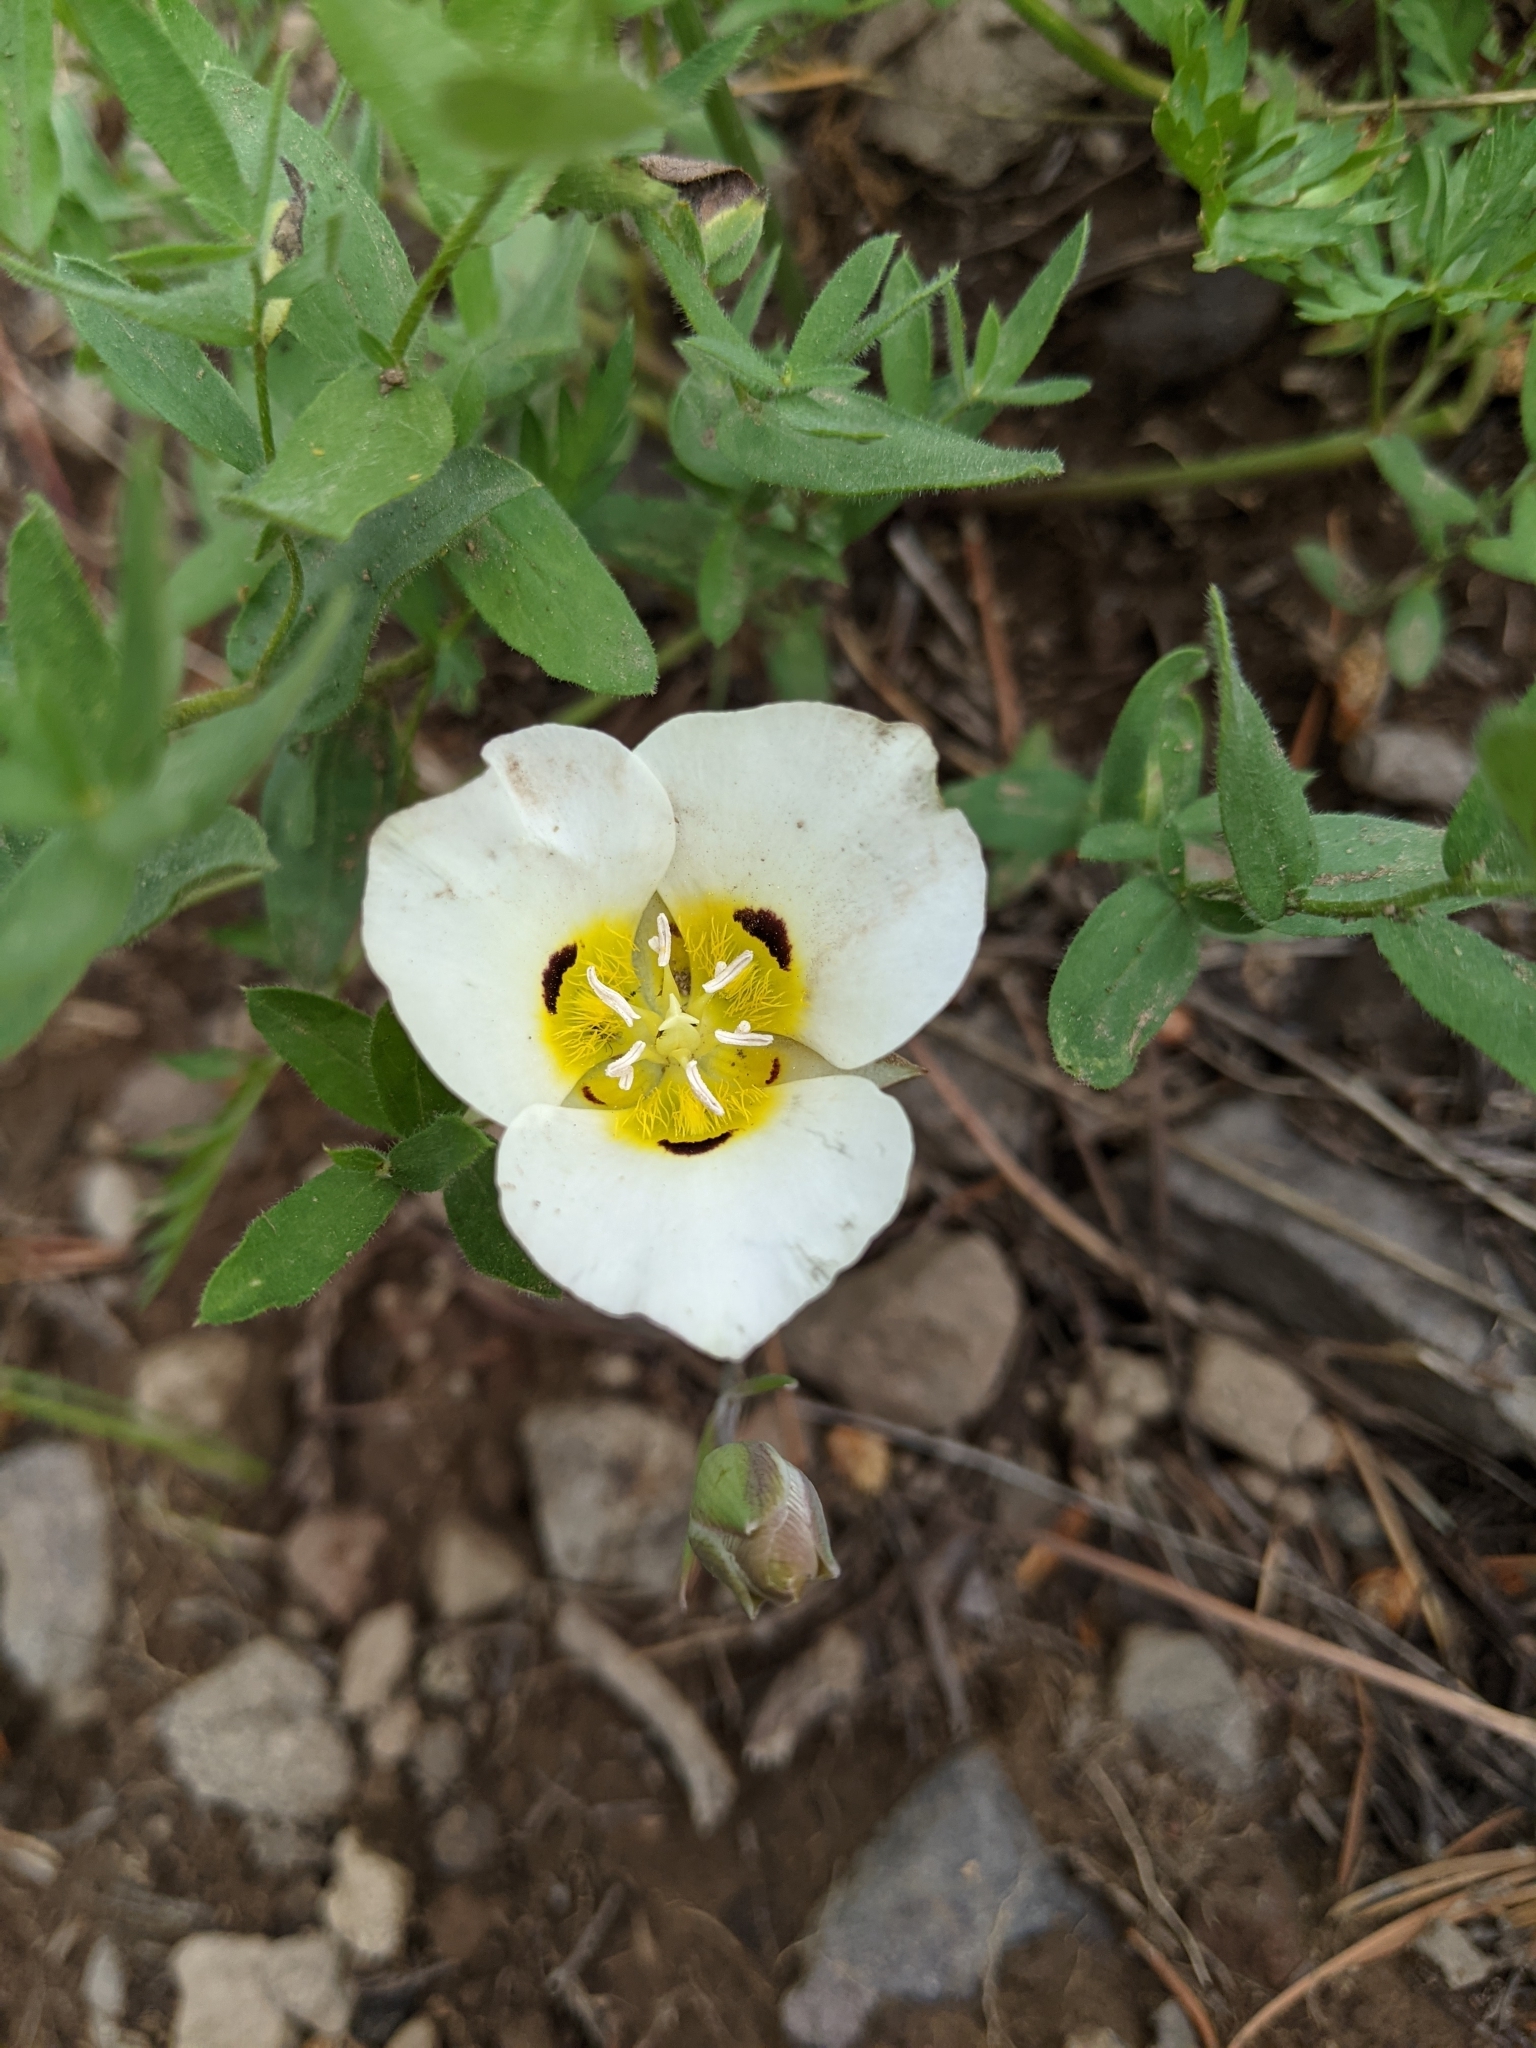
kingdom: Plantae
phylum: Tracheophyta
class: Liliopsida
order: Liliales
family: Liliaceae
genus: Calochortus
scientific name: Calochortus leichtlinii
